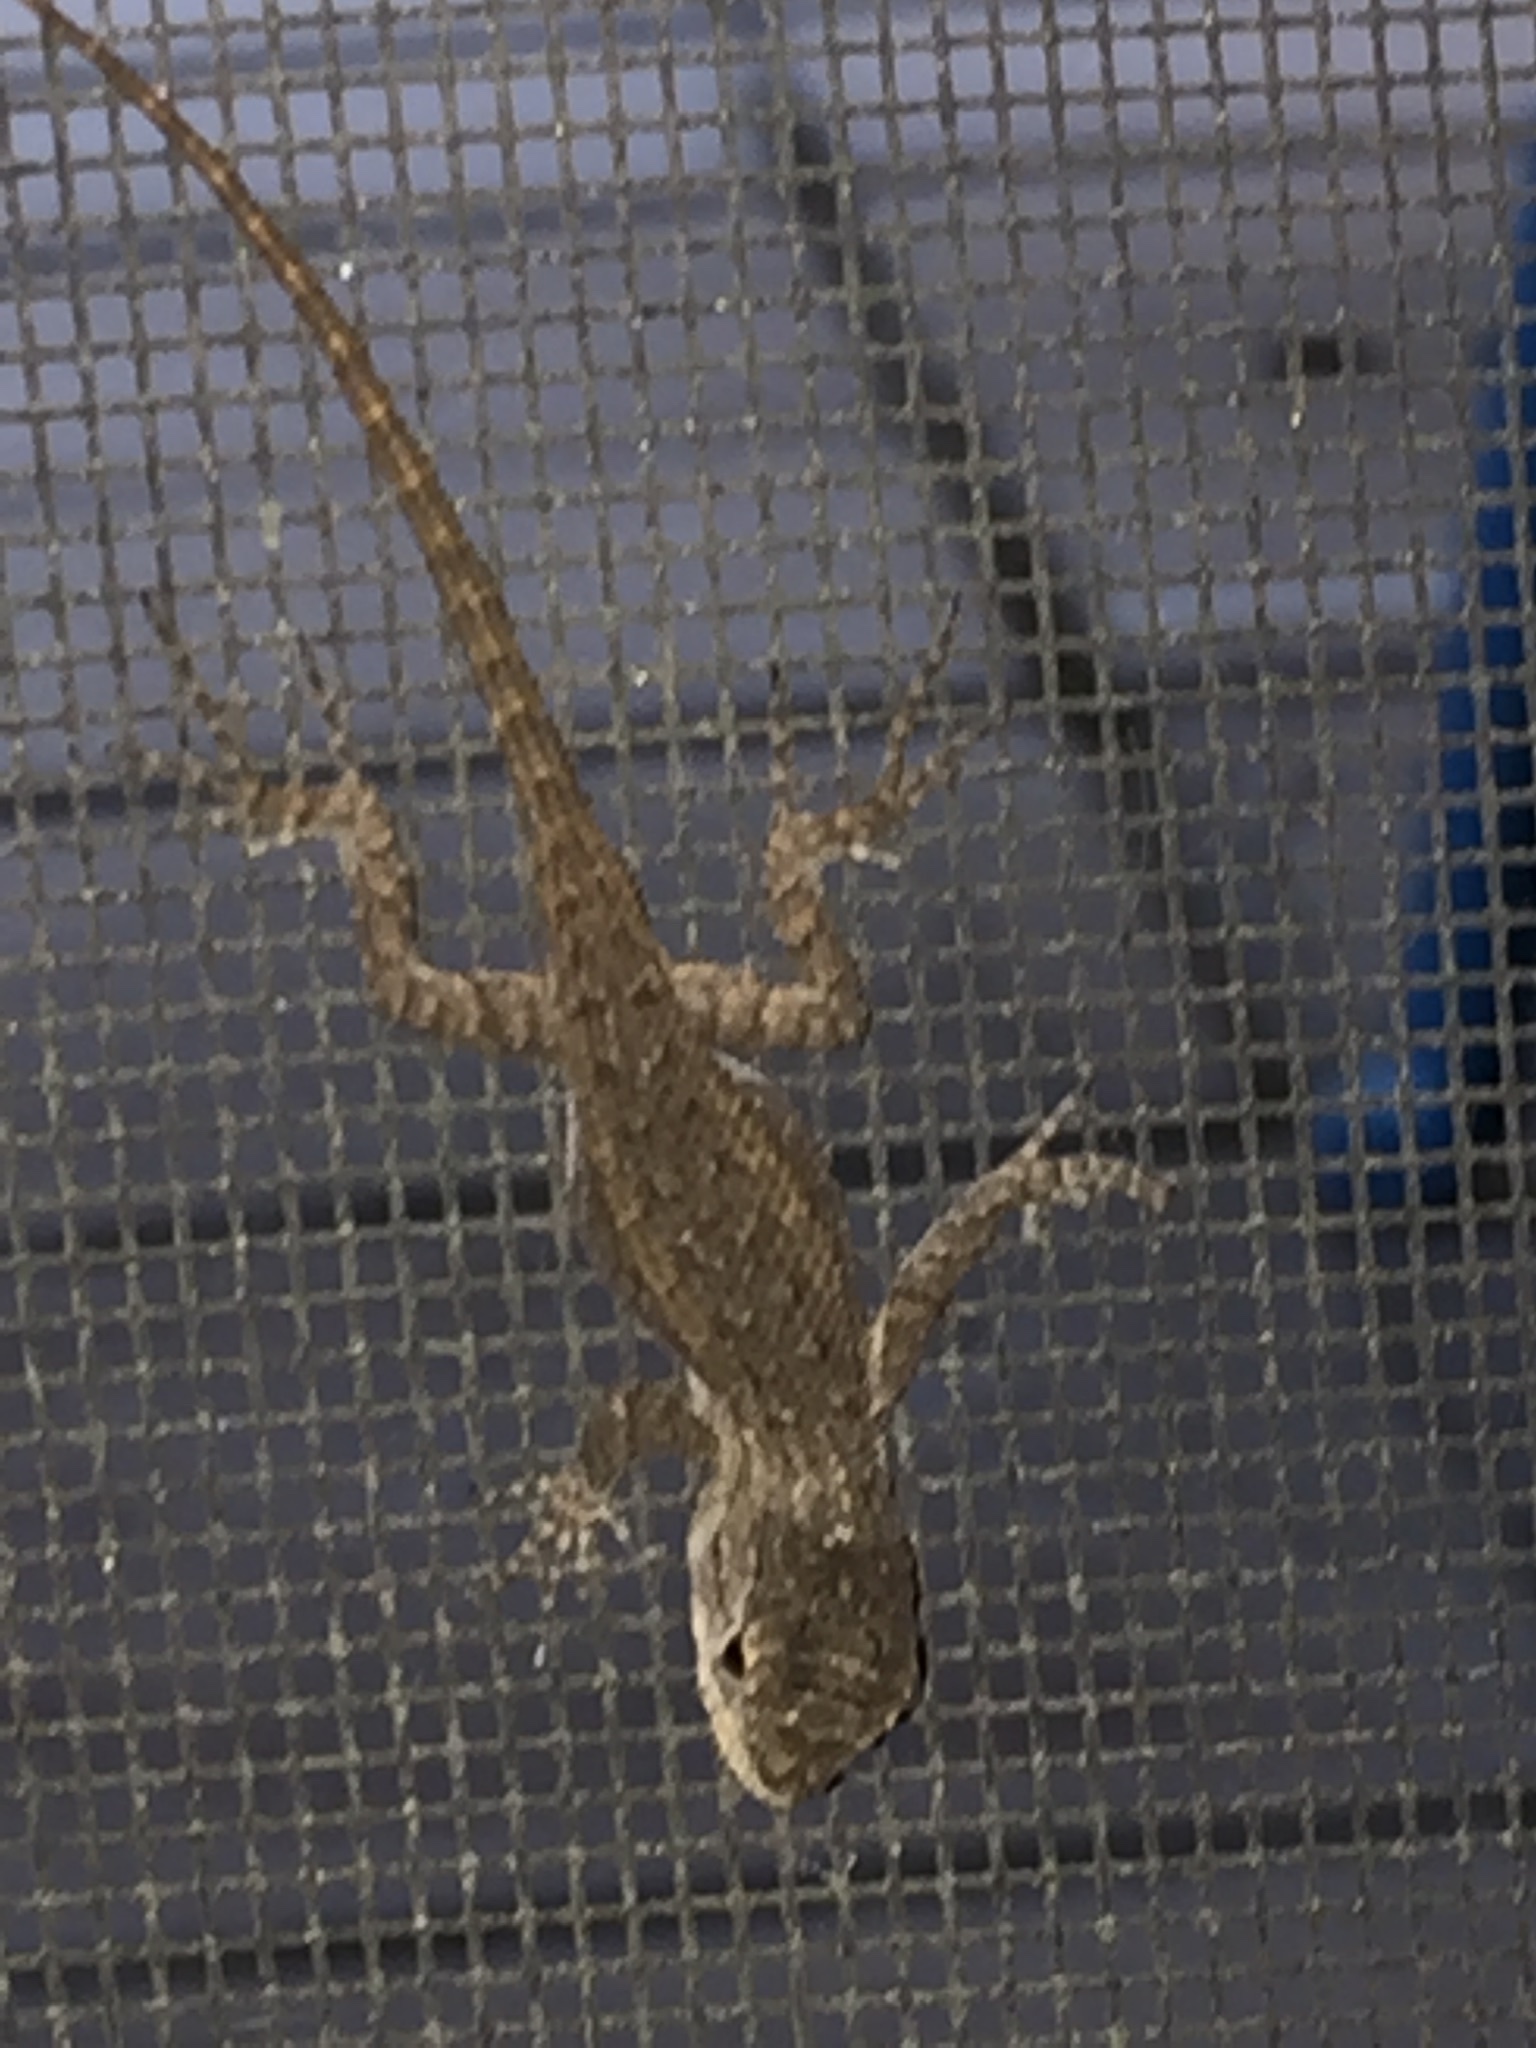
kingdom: Animalia
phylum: Chordata
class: Squamata
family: Phrynosomatidae
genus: Sceloporus
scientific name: Sceloporus occidentalis
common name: Western fence lizard
